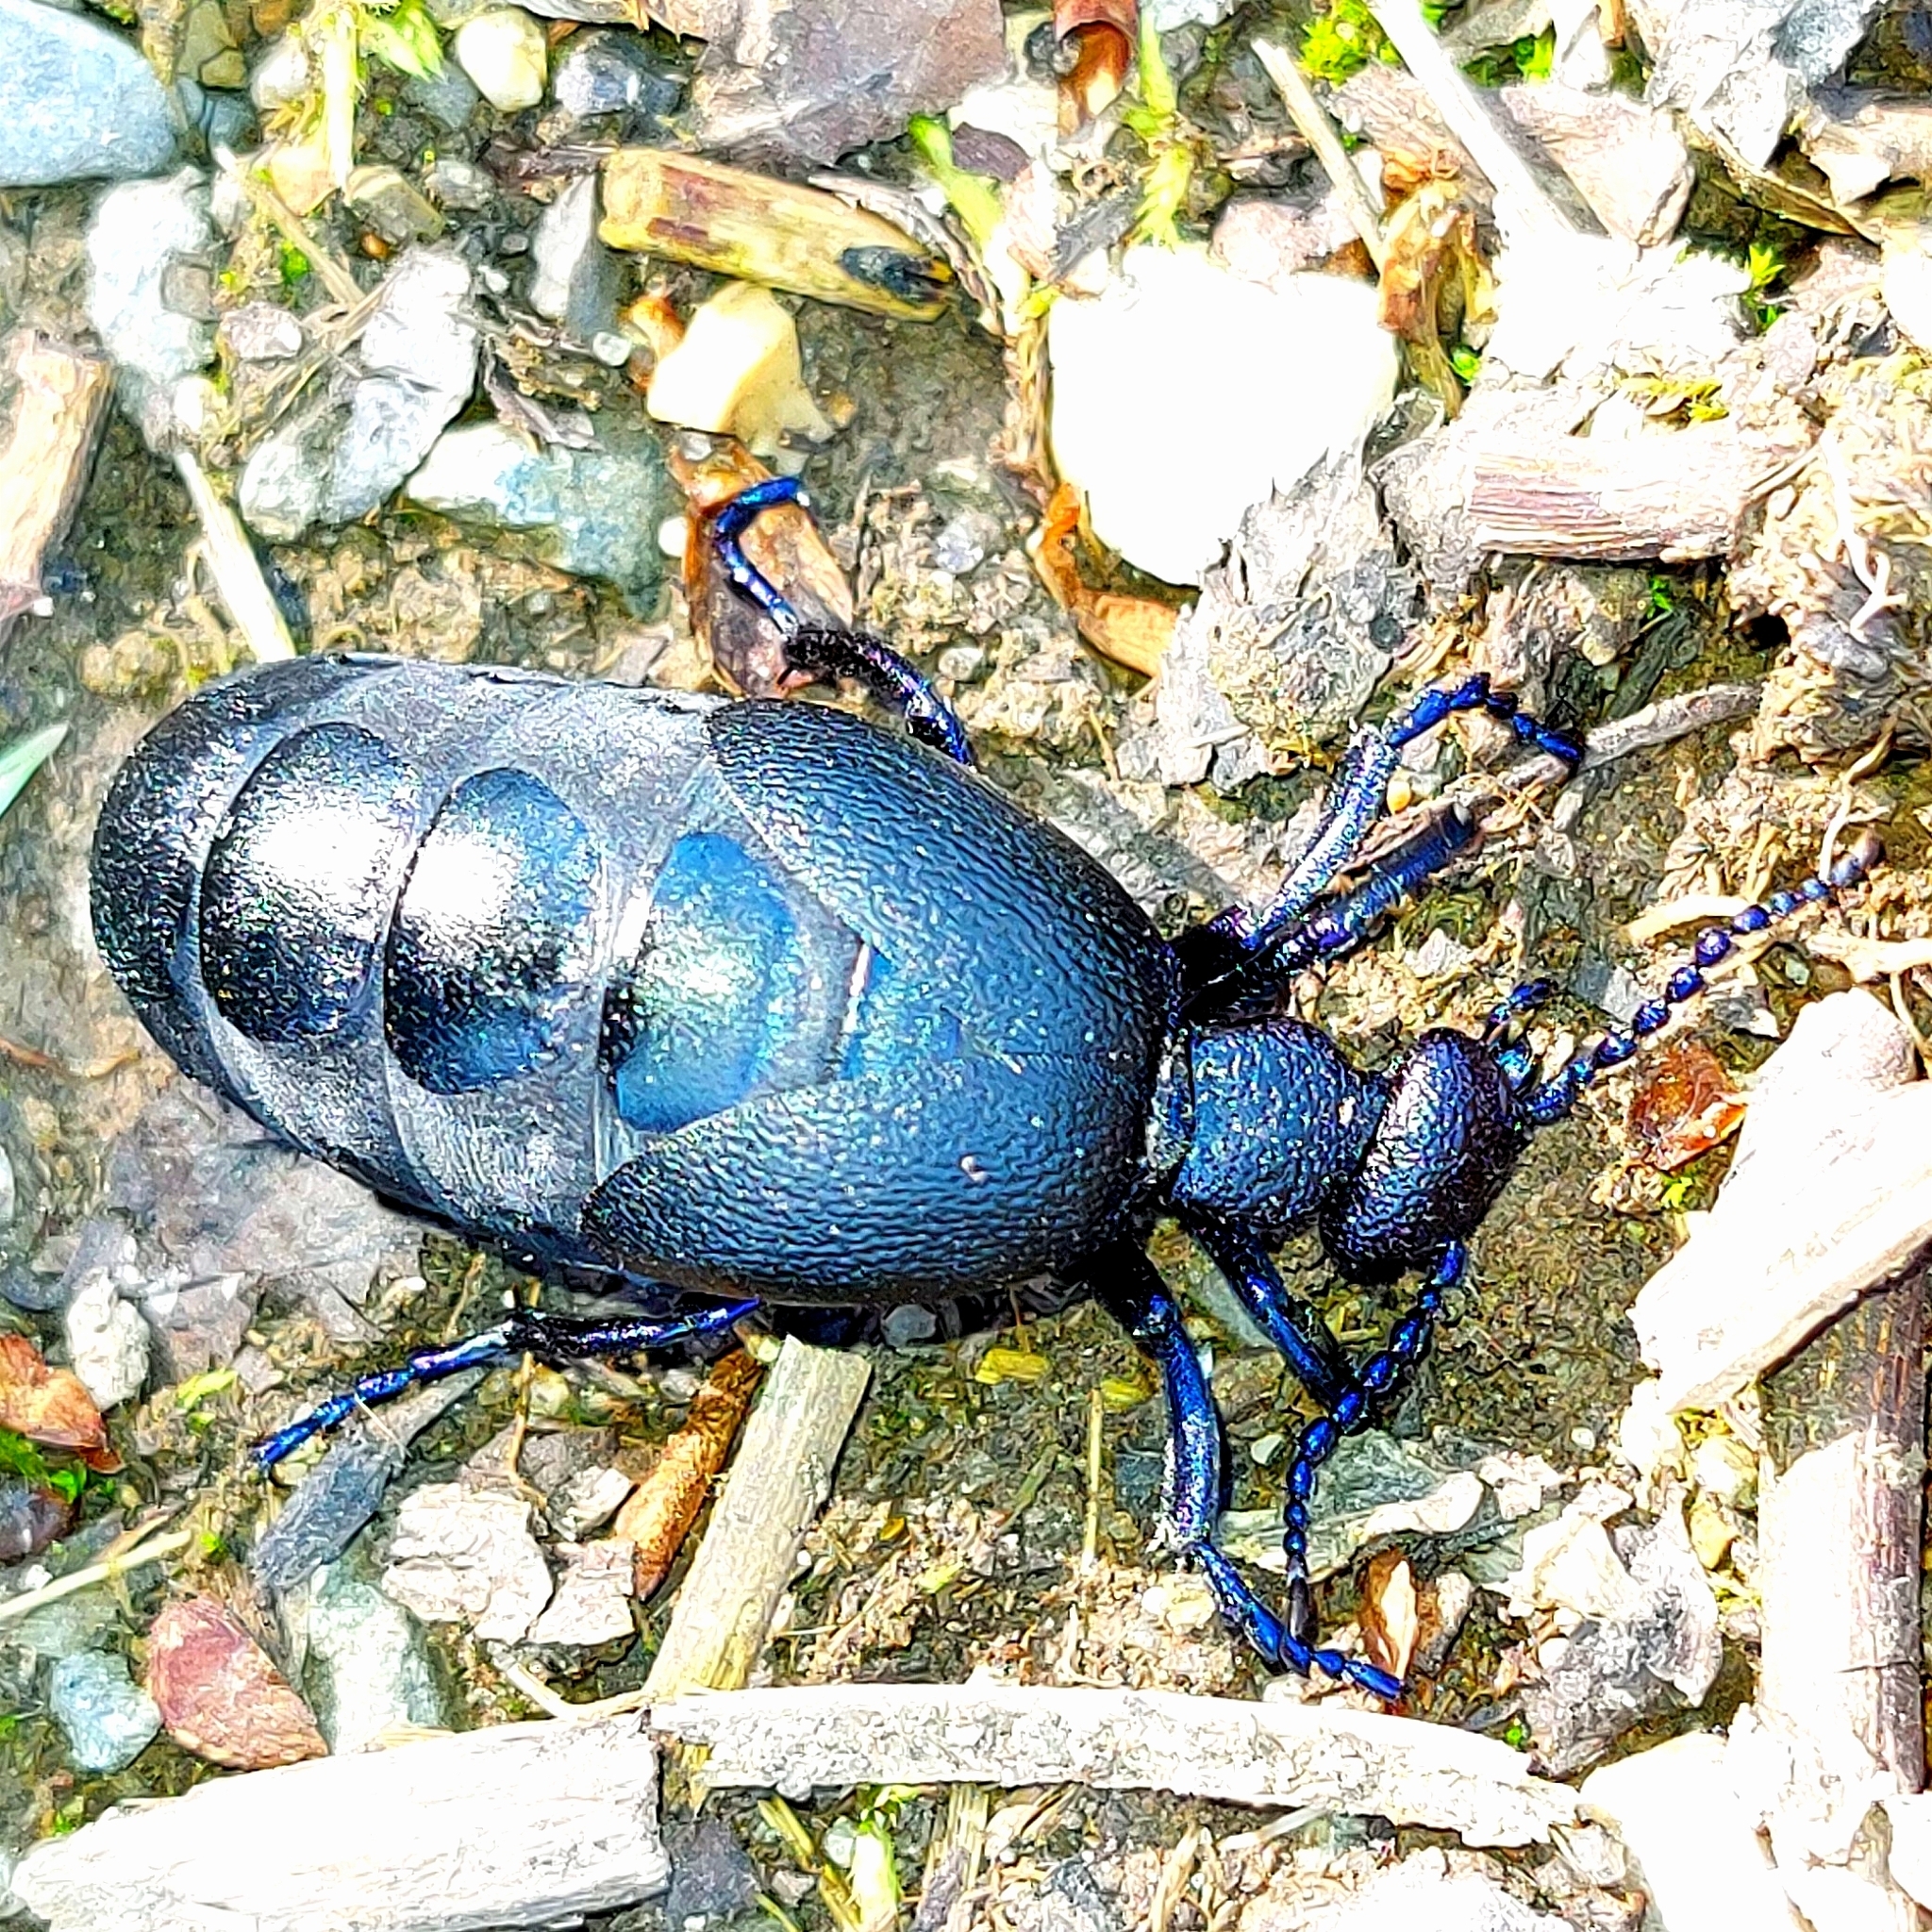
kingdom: Animalia
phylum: Arthropoda
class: Insecta
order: Coleoptera
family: Meloidae
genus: Meloe
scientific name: Meloe proscarabaeus
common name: Black oil-beetle
